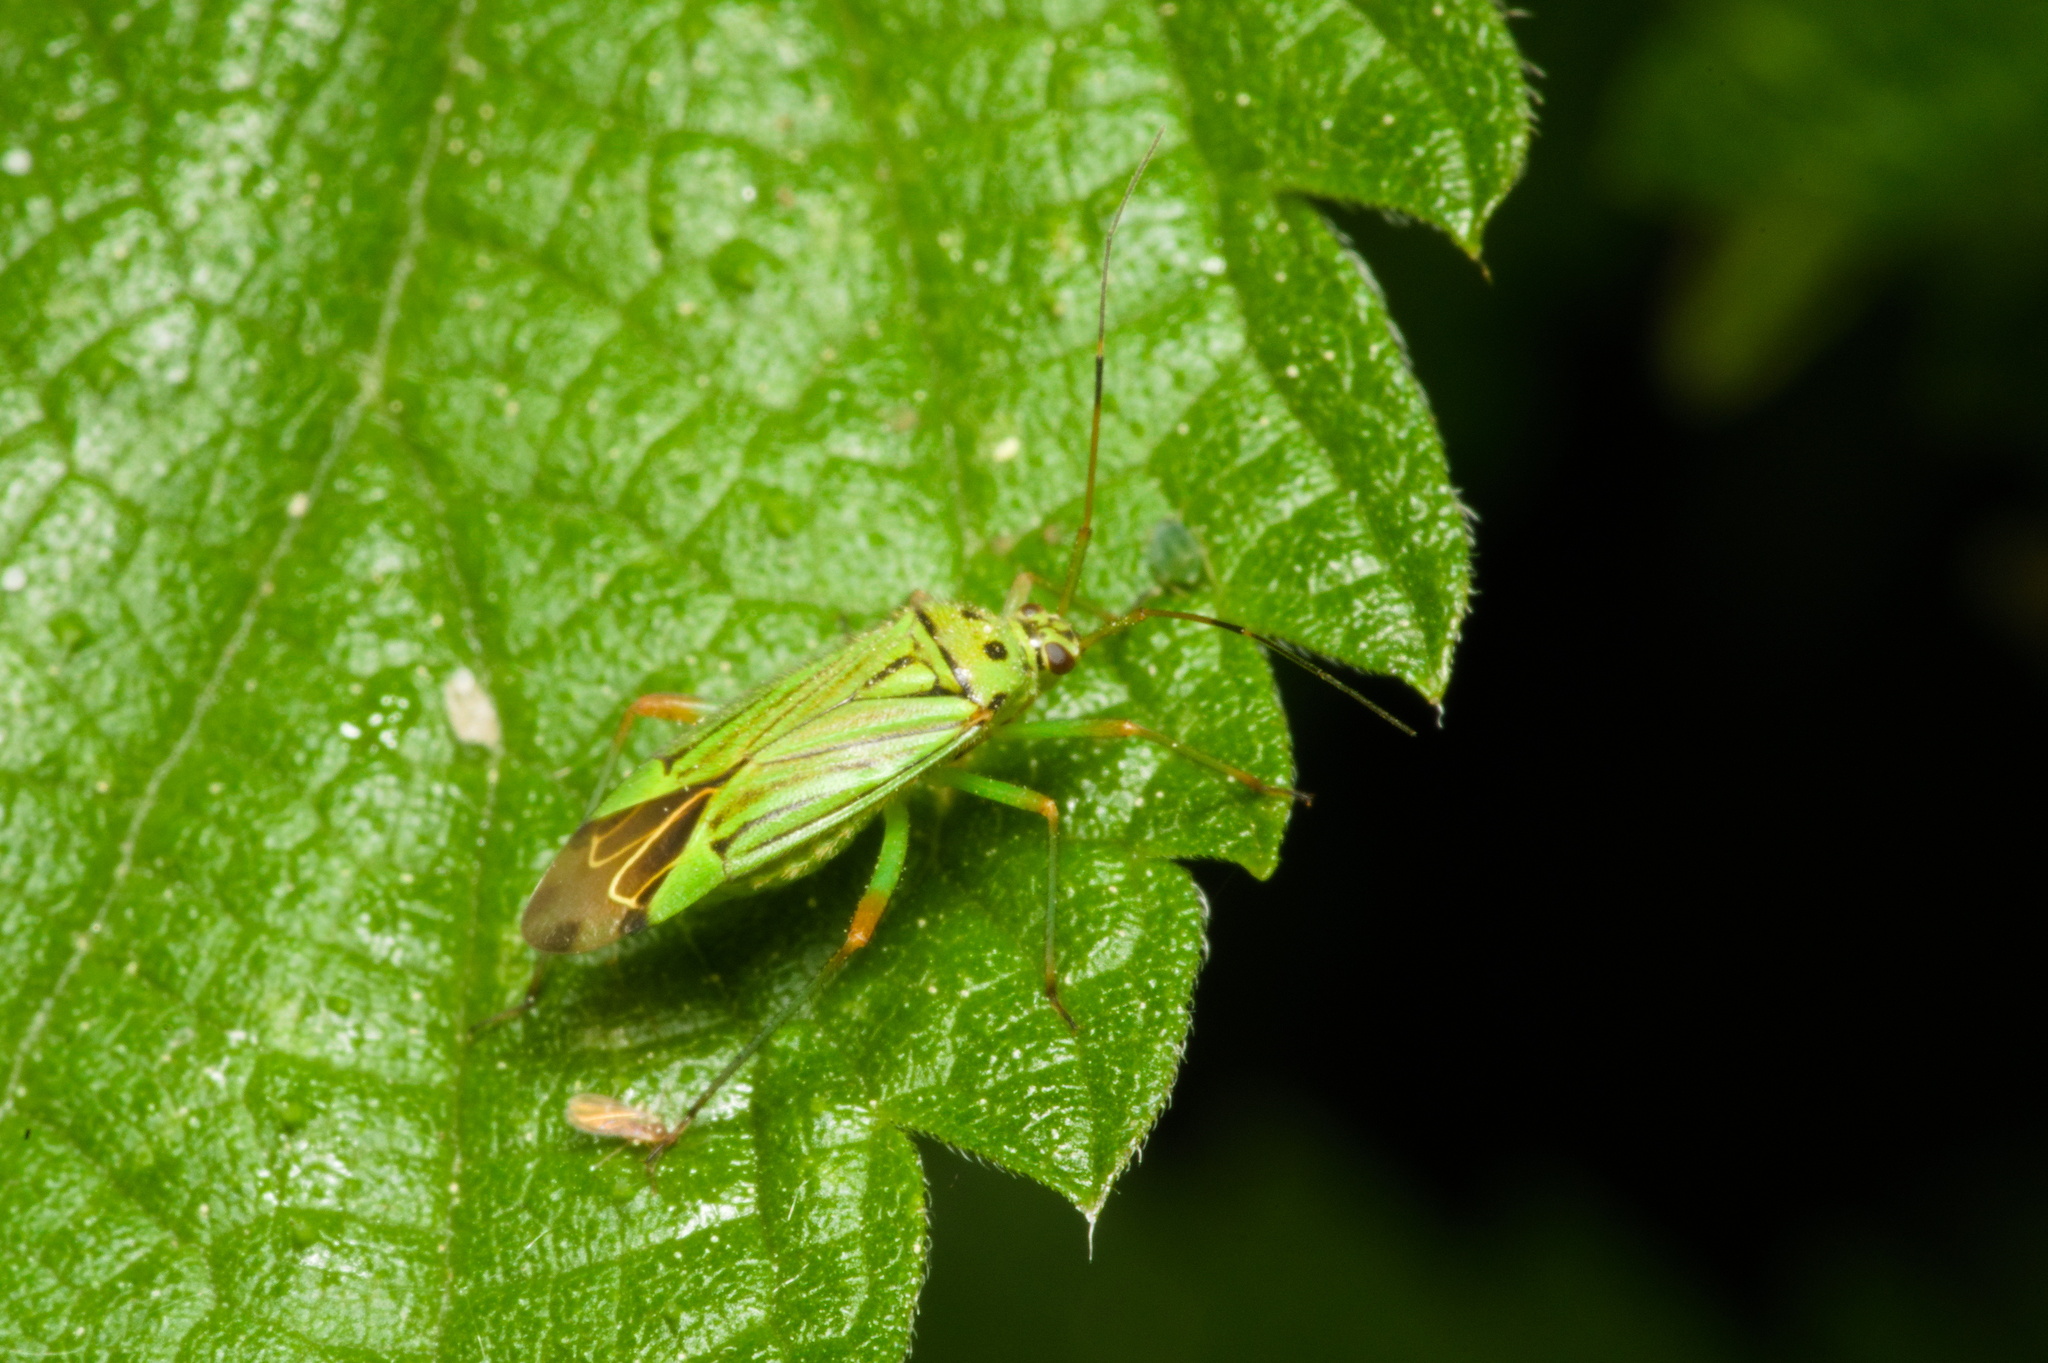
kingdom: Animalia
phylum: Arthropoda
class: Insecta
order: Hemiptera
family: Miridae
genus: Mermitelocerus
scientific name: Mermitelocerus schmidtii
